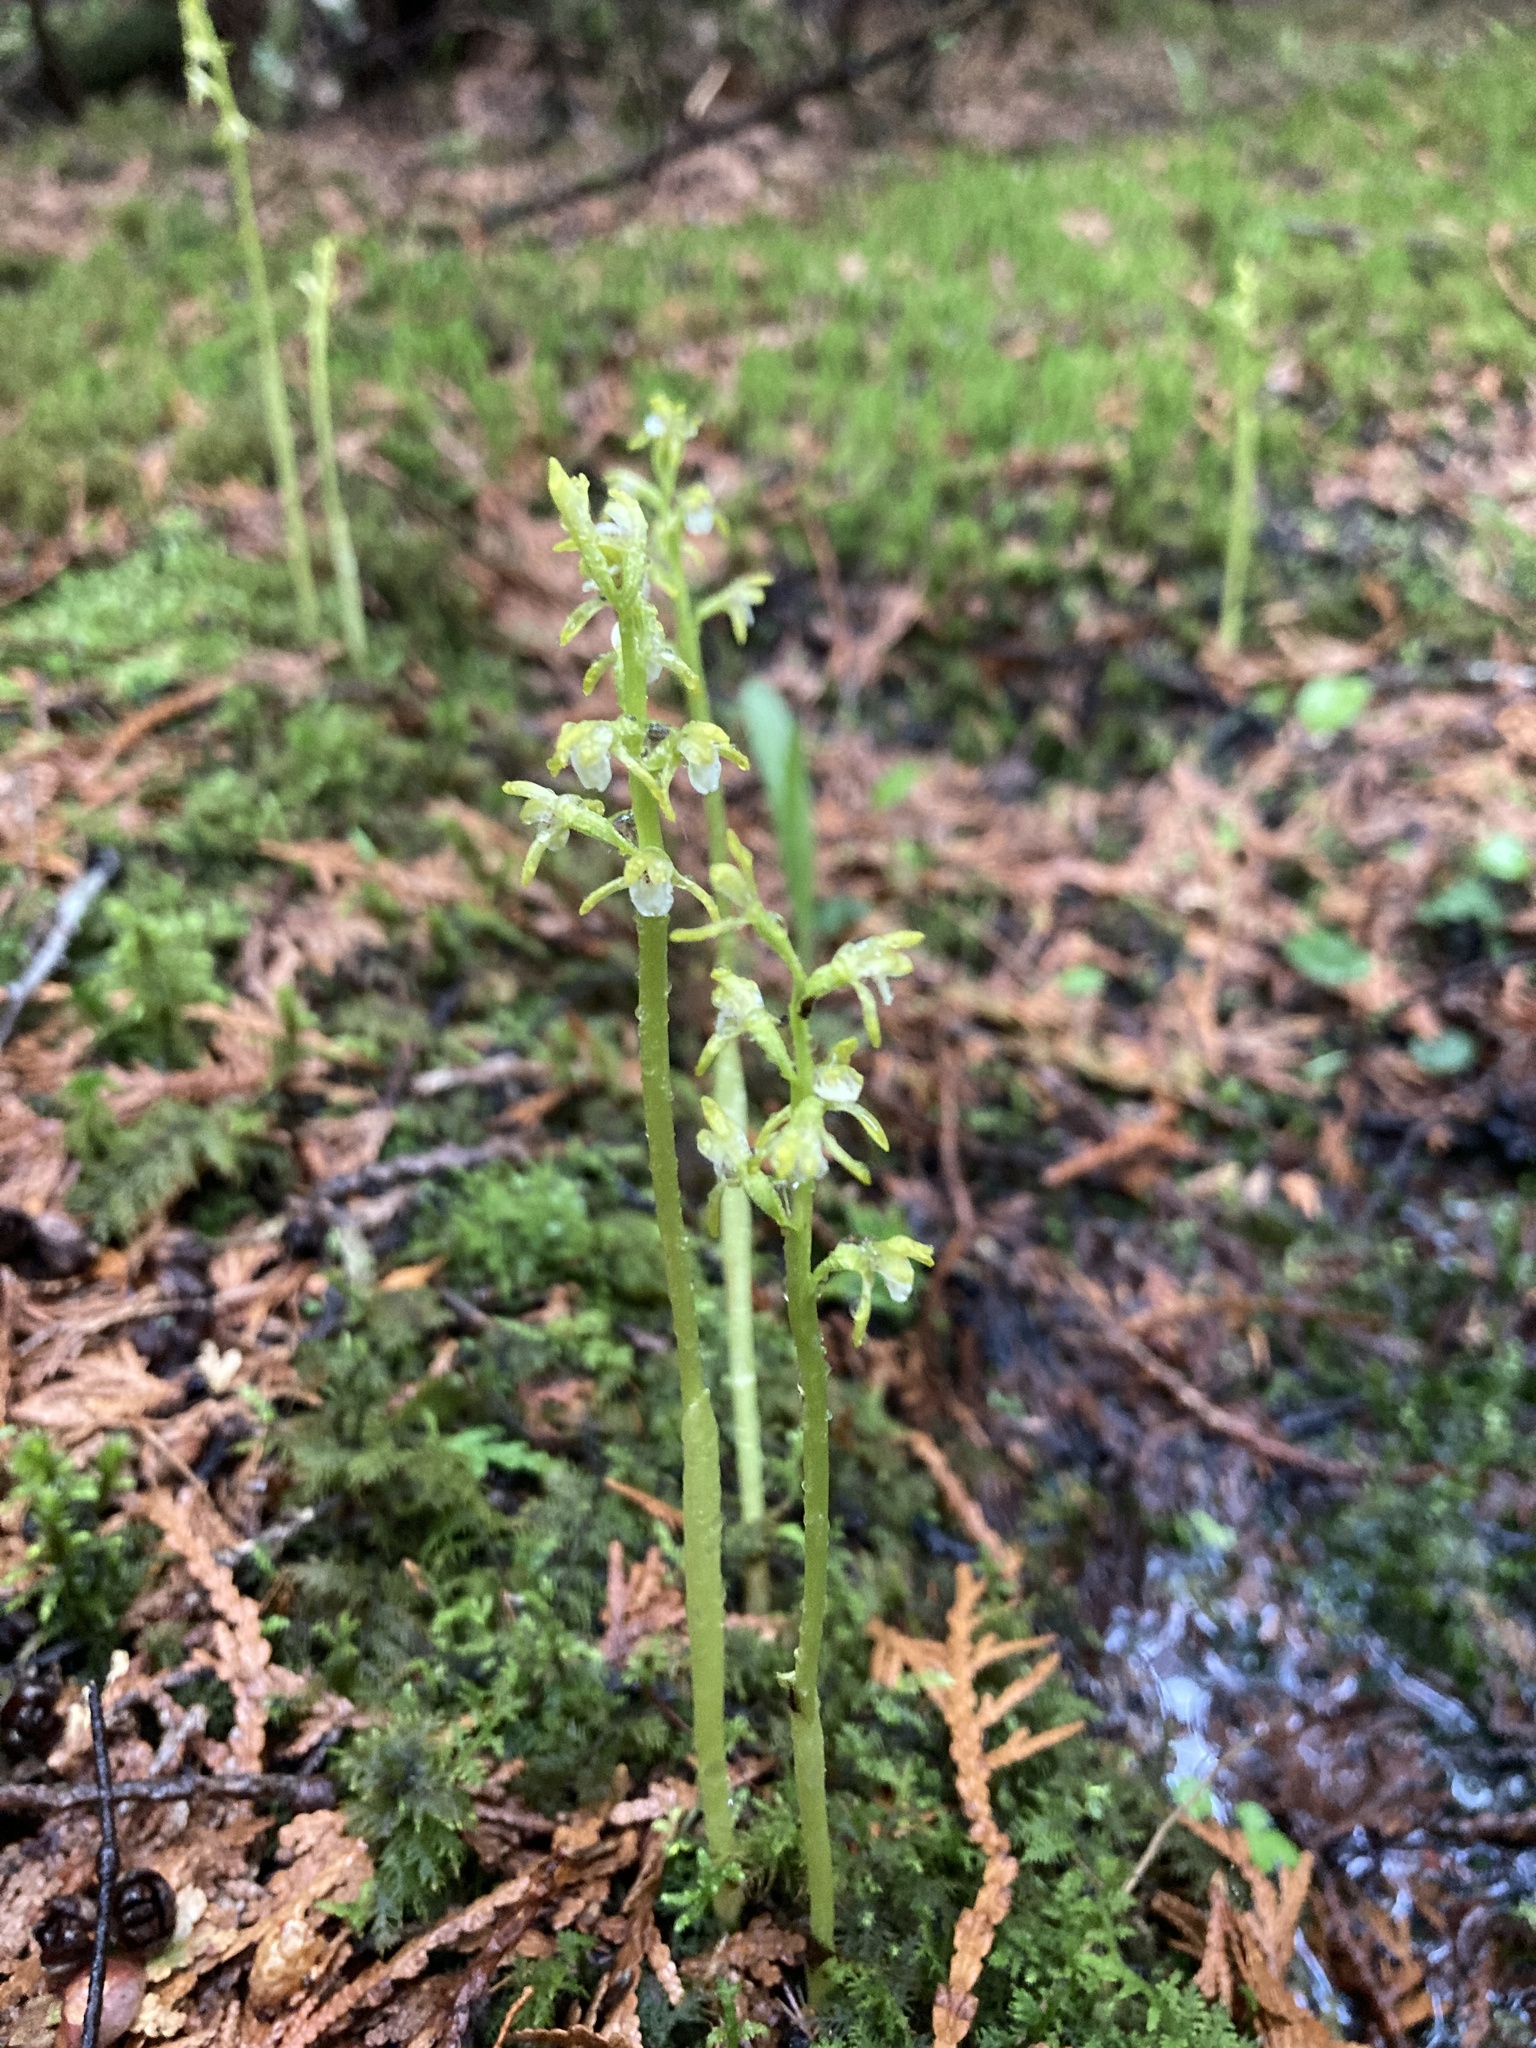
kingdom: Plantae
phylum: Tracheophyta
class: Liliopsida
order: Asparagales
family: Orchidaceae
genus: Corallorhiza
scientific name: Corallorhiza trifida
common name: Yellow coralroot
